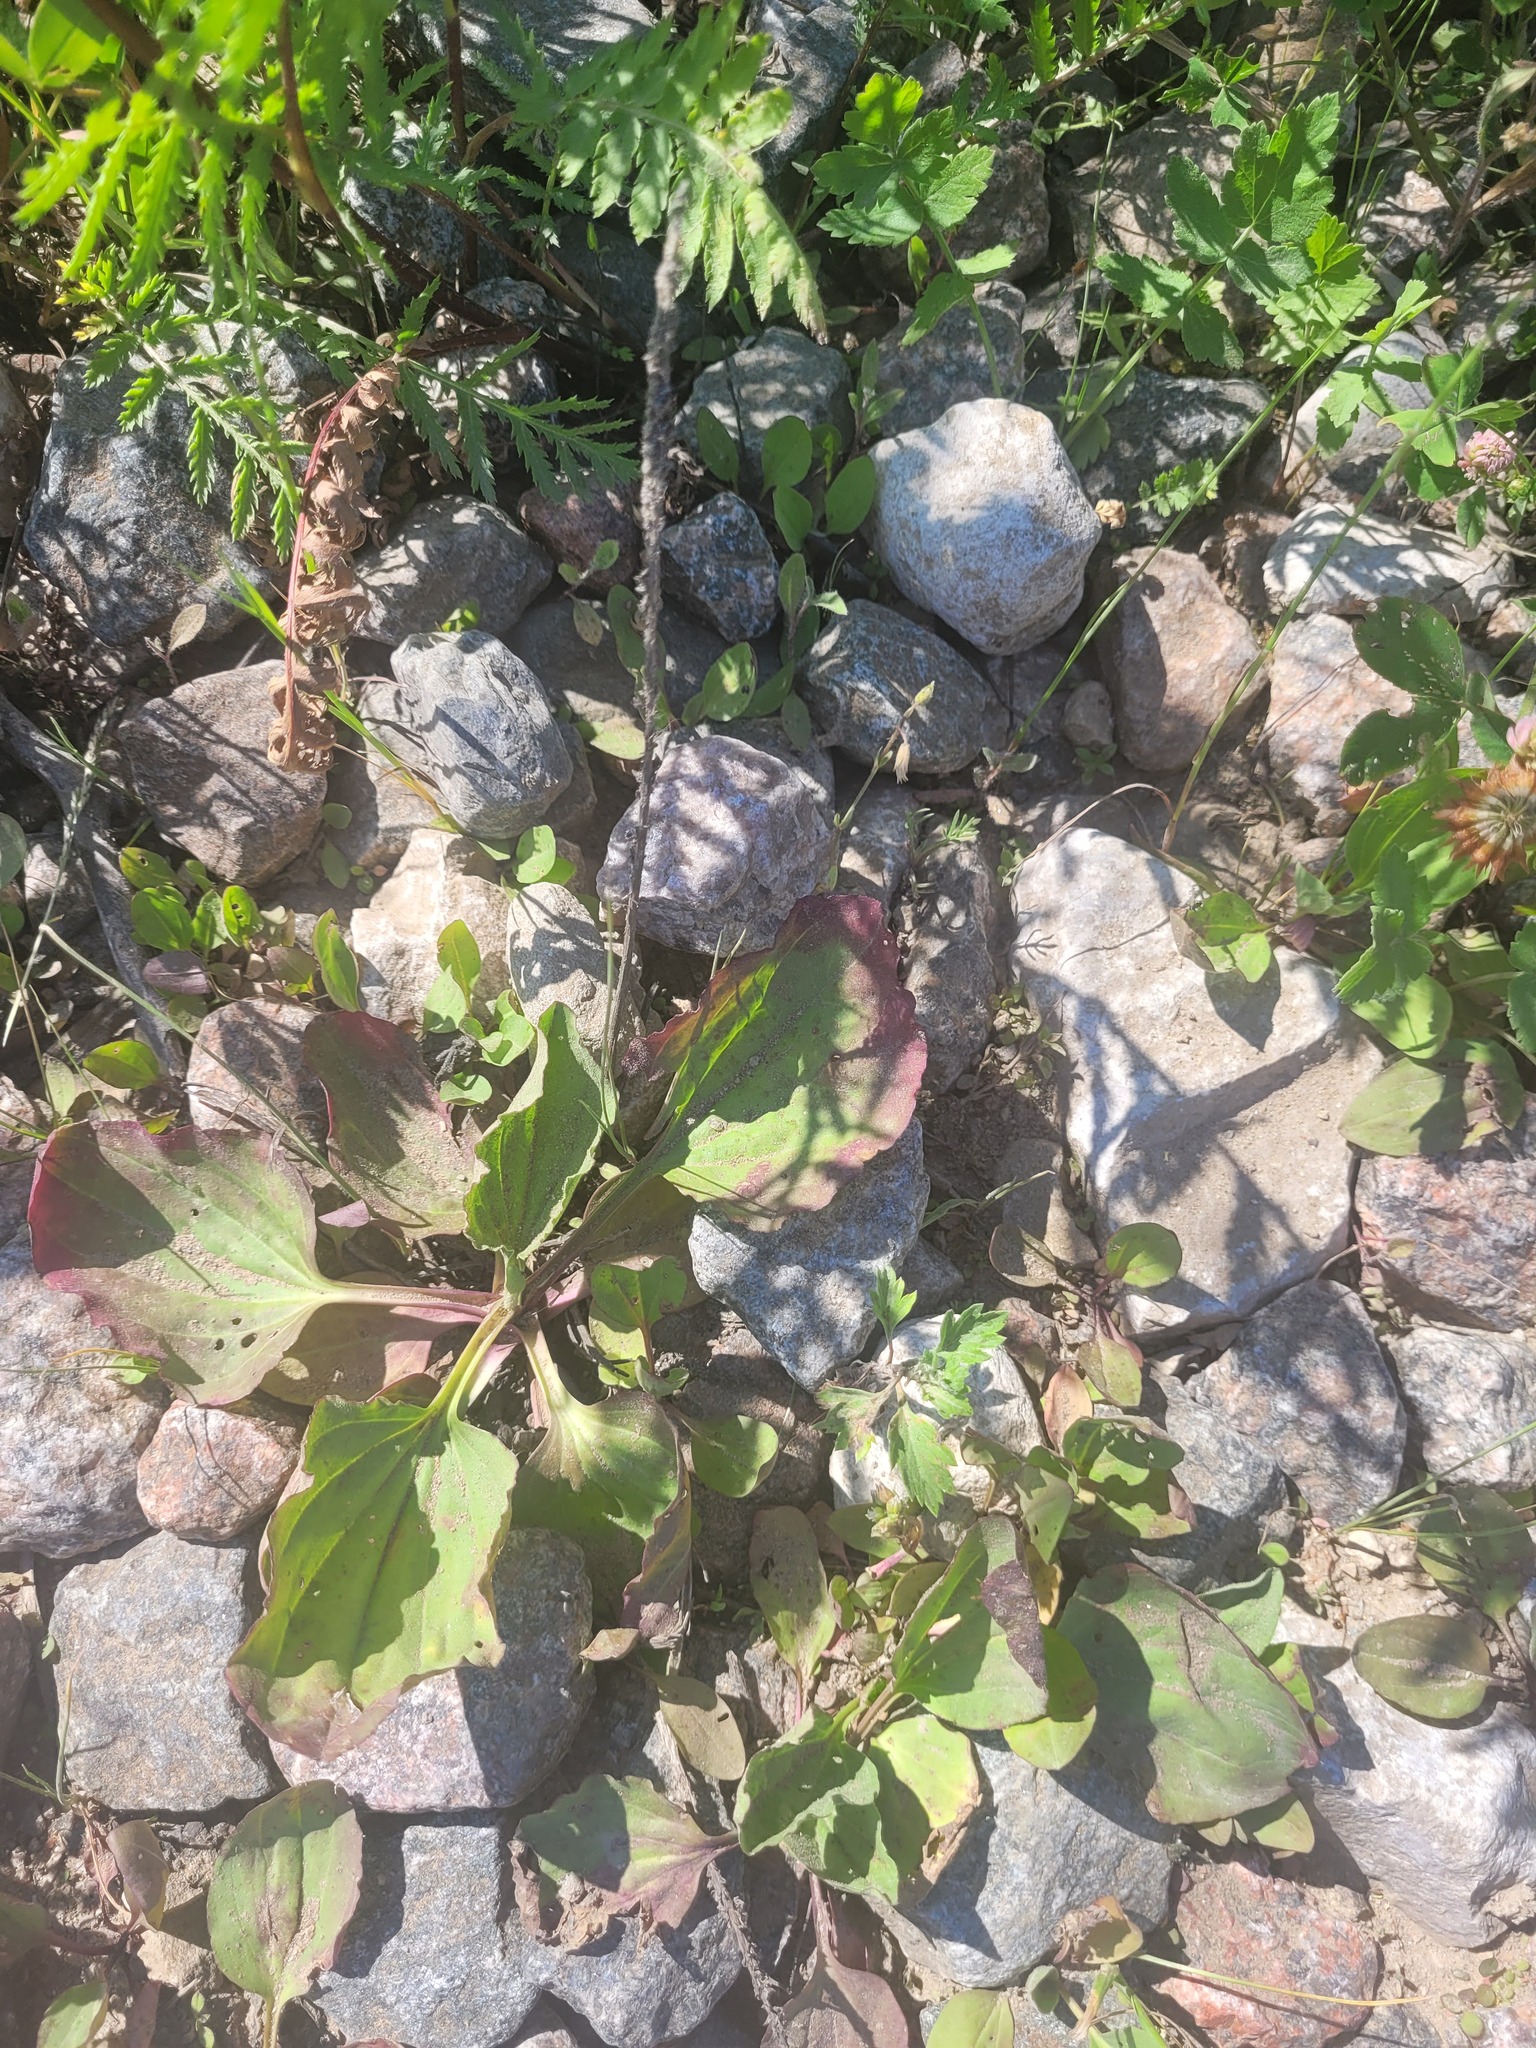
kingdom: Plantae
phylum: Tracheophyta
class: Magnoliopsida
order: Lamiales
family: Plantaginaceae
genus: Plantago
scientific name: Plantago major
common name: Common plantain
